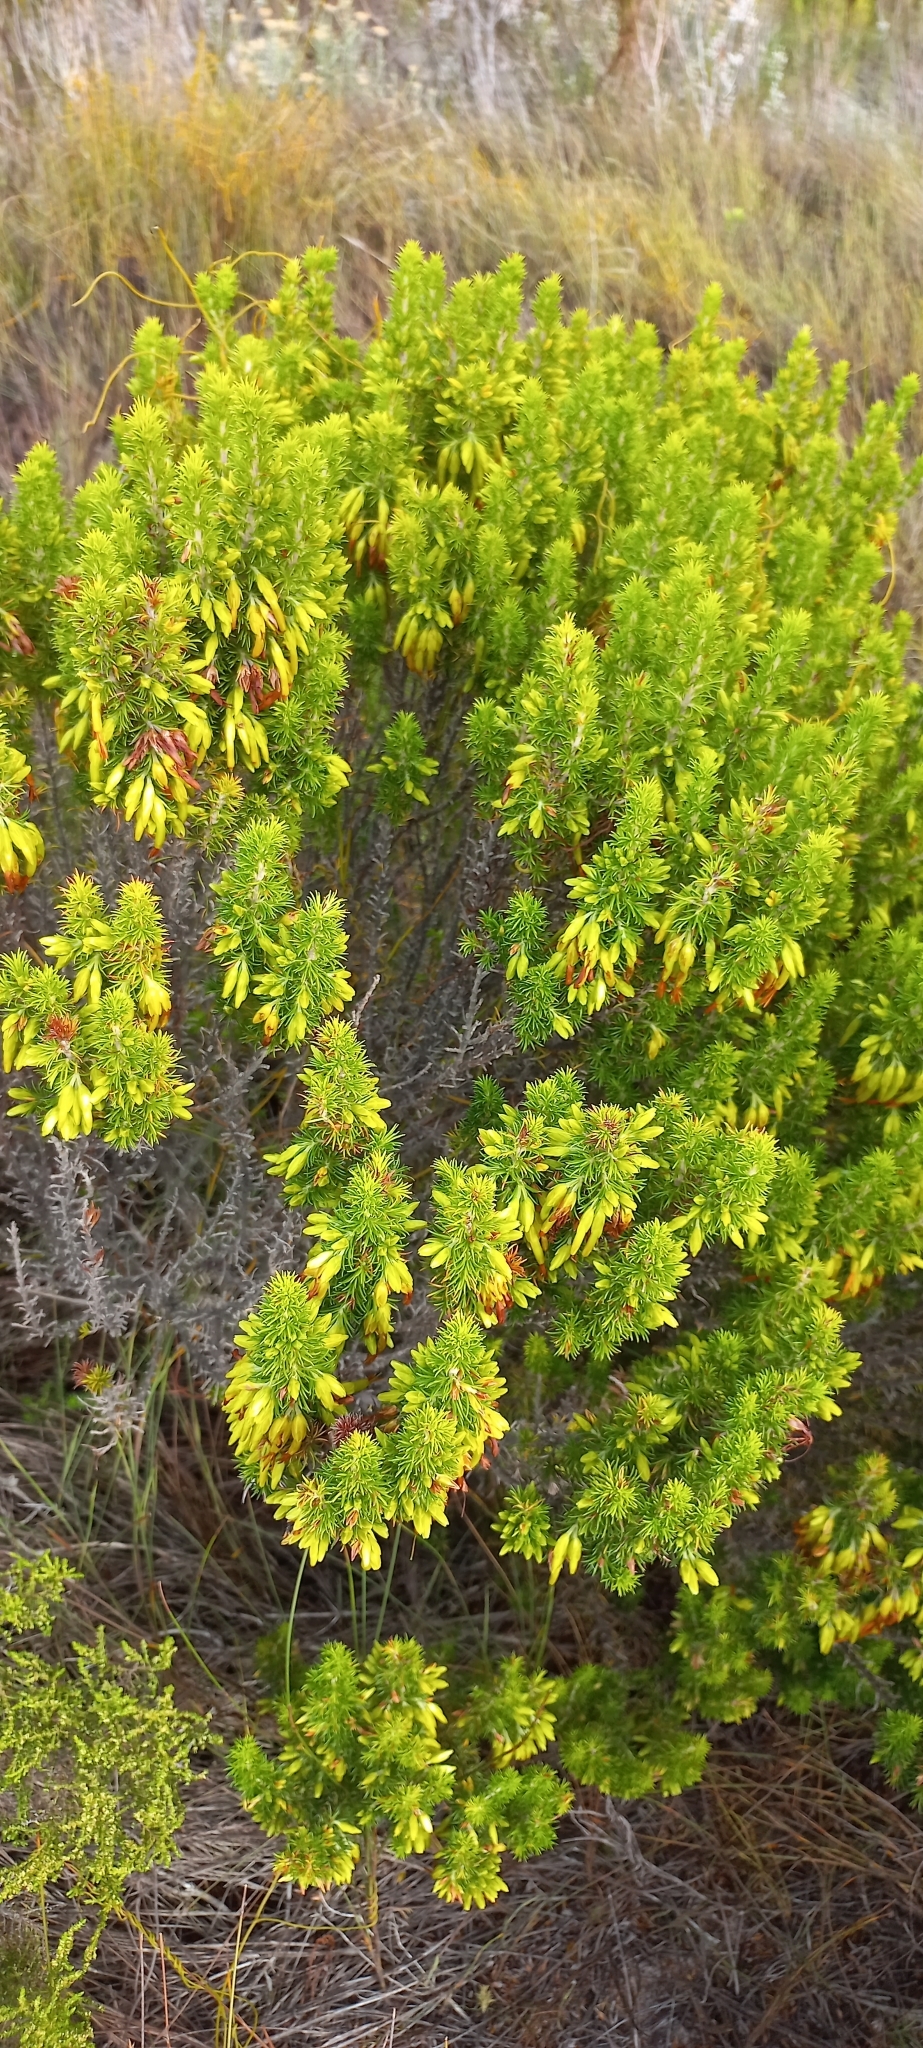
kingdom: Plantae
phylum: Tracheophyta
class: Magnoliopsida
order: Ericales
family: Ericaceae
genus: Erica
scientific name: Erica coccinea
